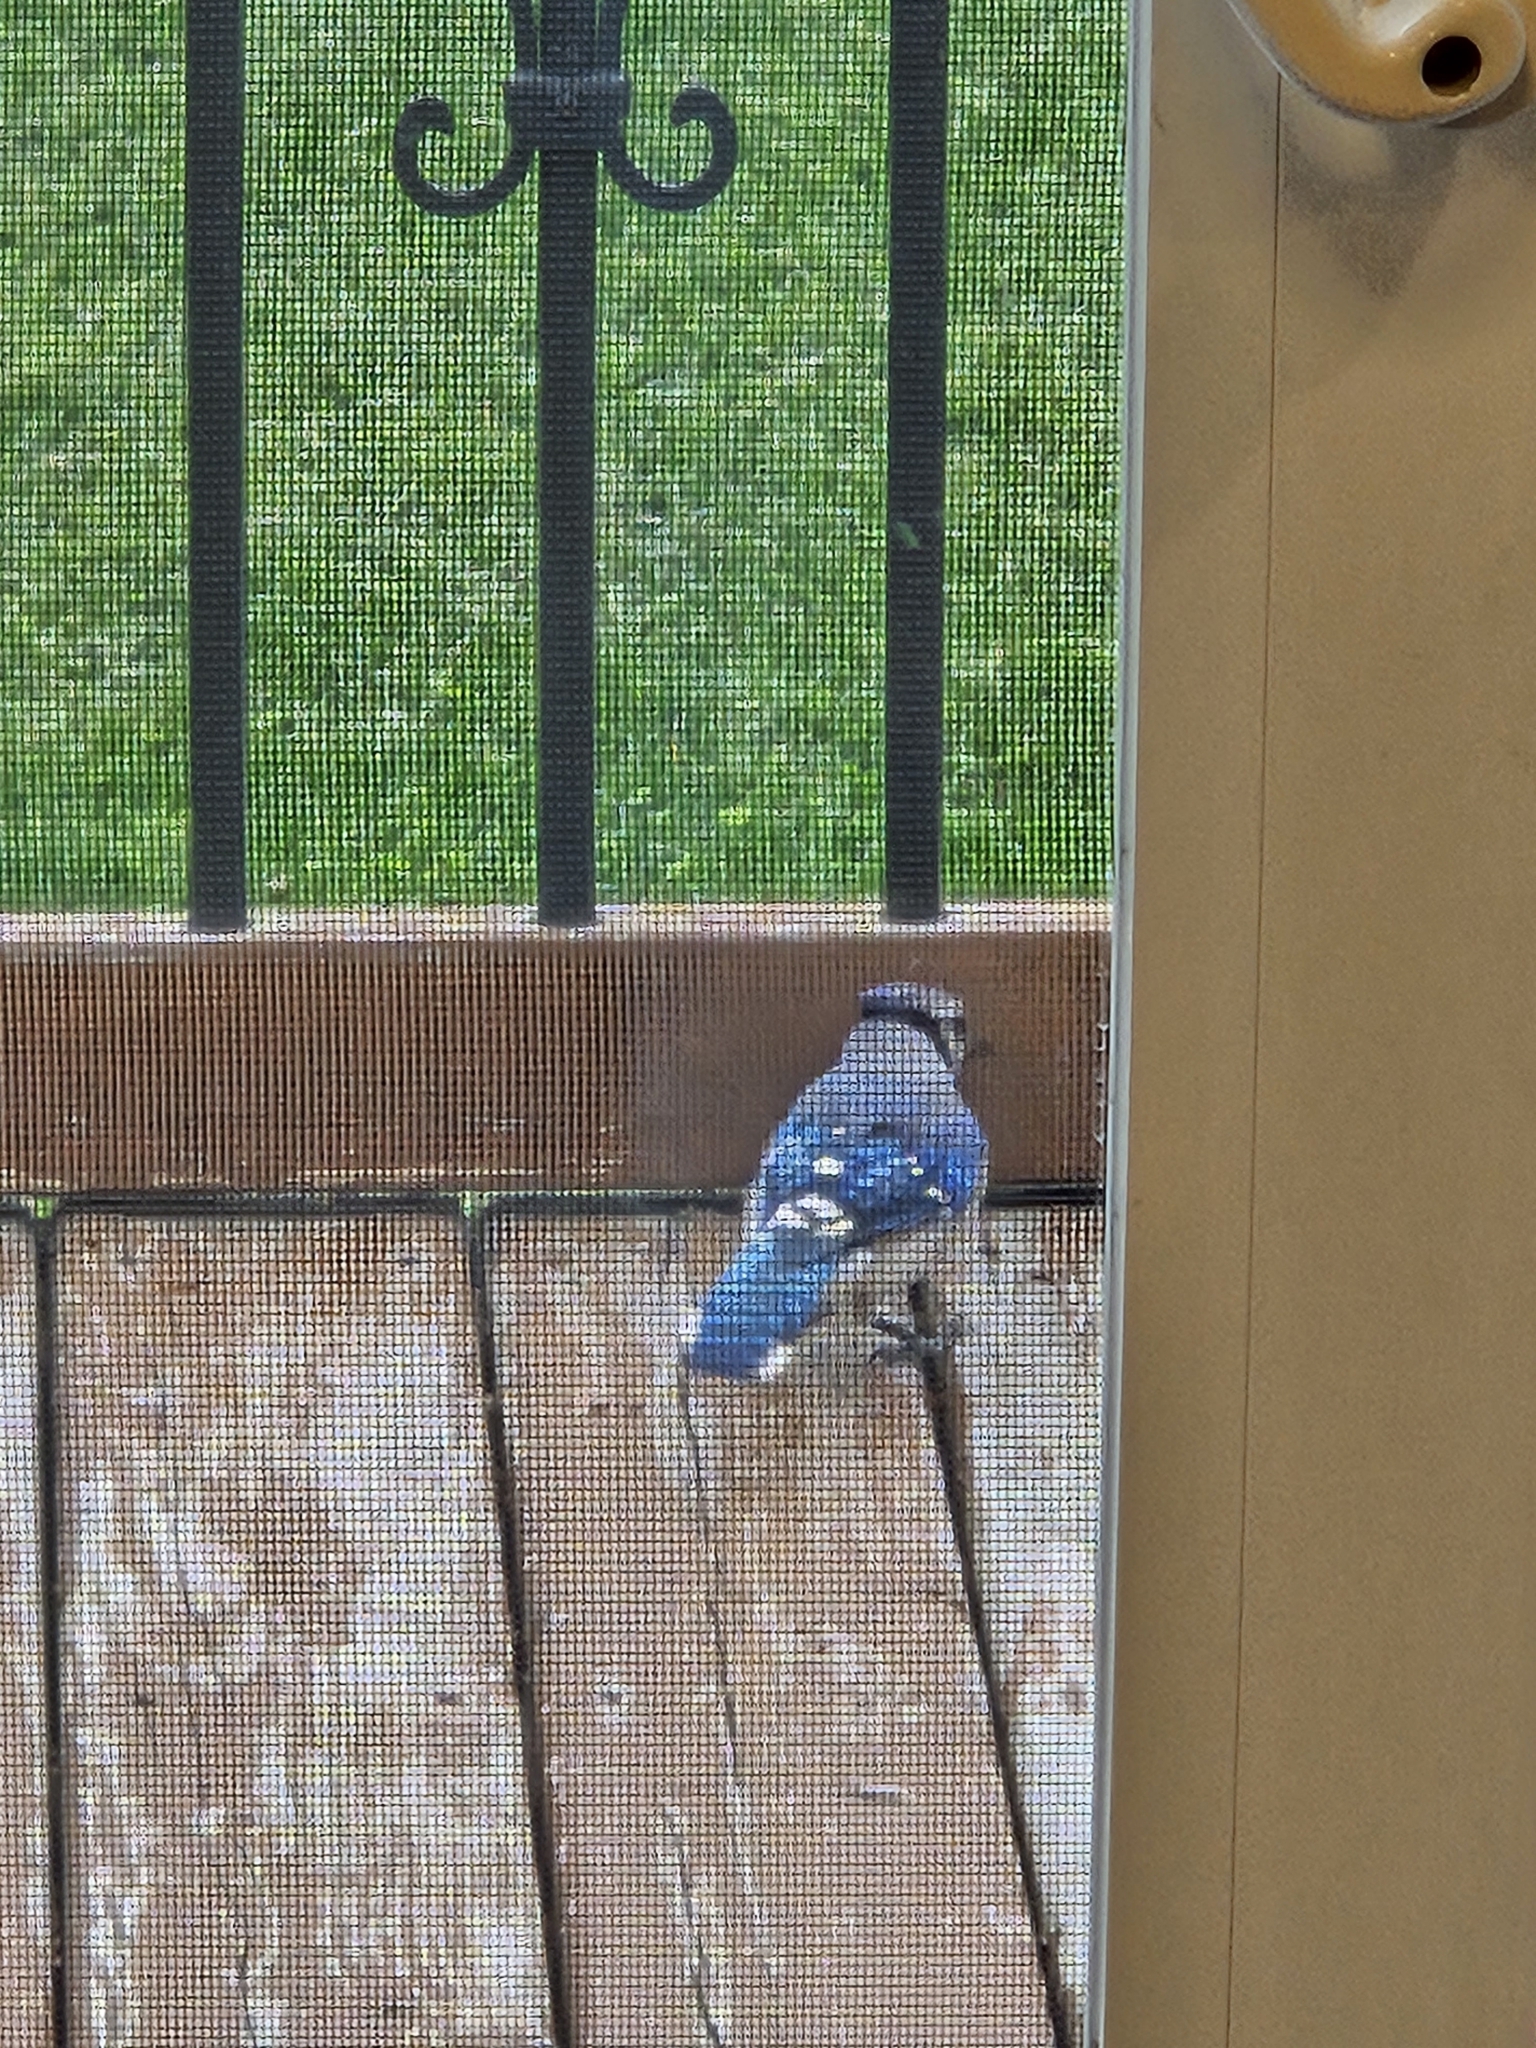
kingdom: Animalia
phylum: Chordata
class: Aves
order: Passeriformes
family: Corvidae
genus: Cyanocitta
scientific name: Cyanocitta cristata
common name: Blue jay
